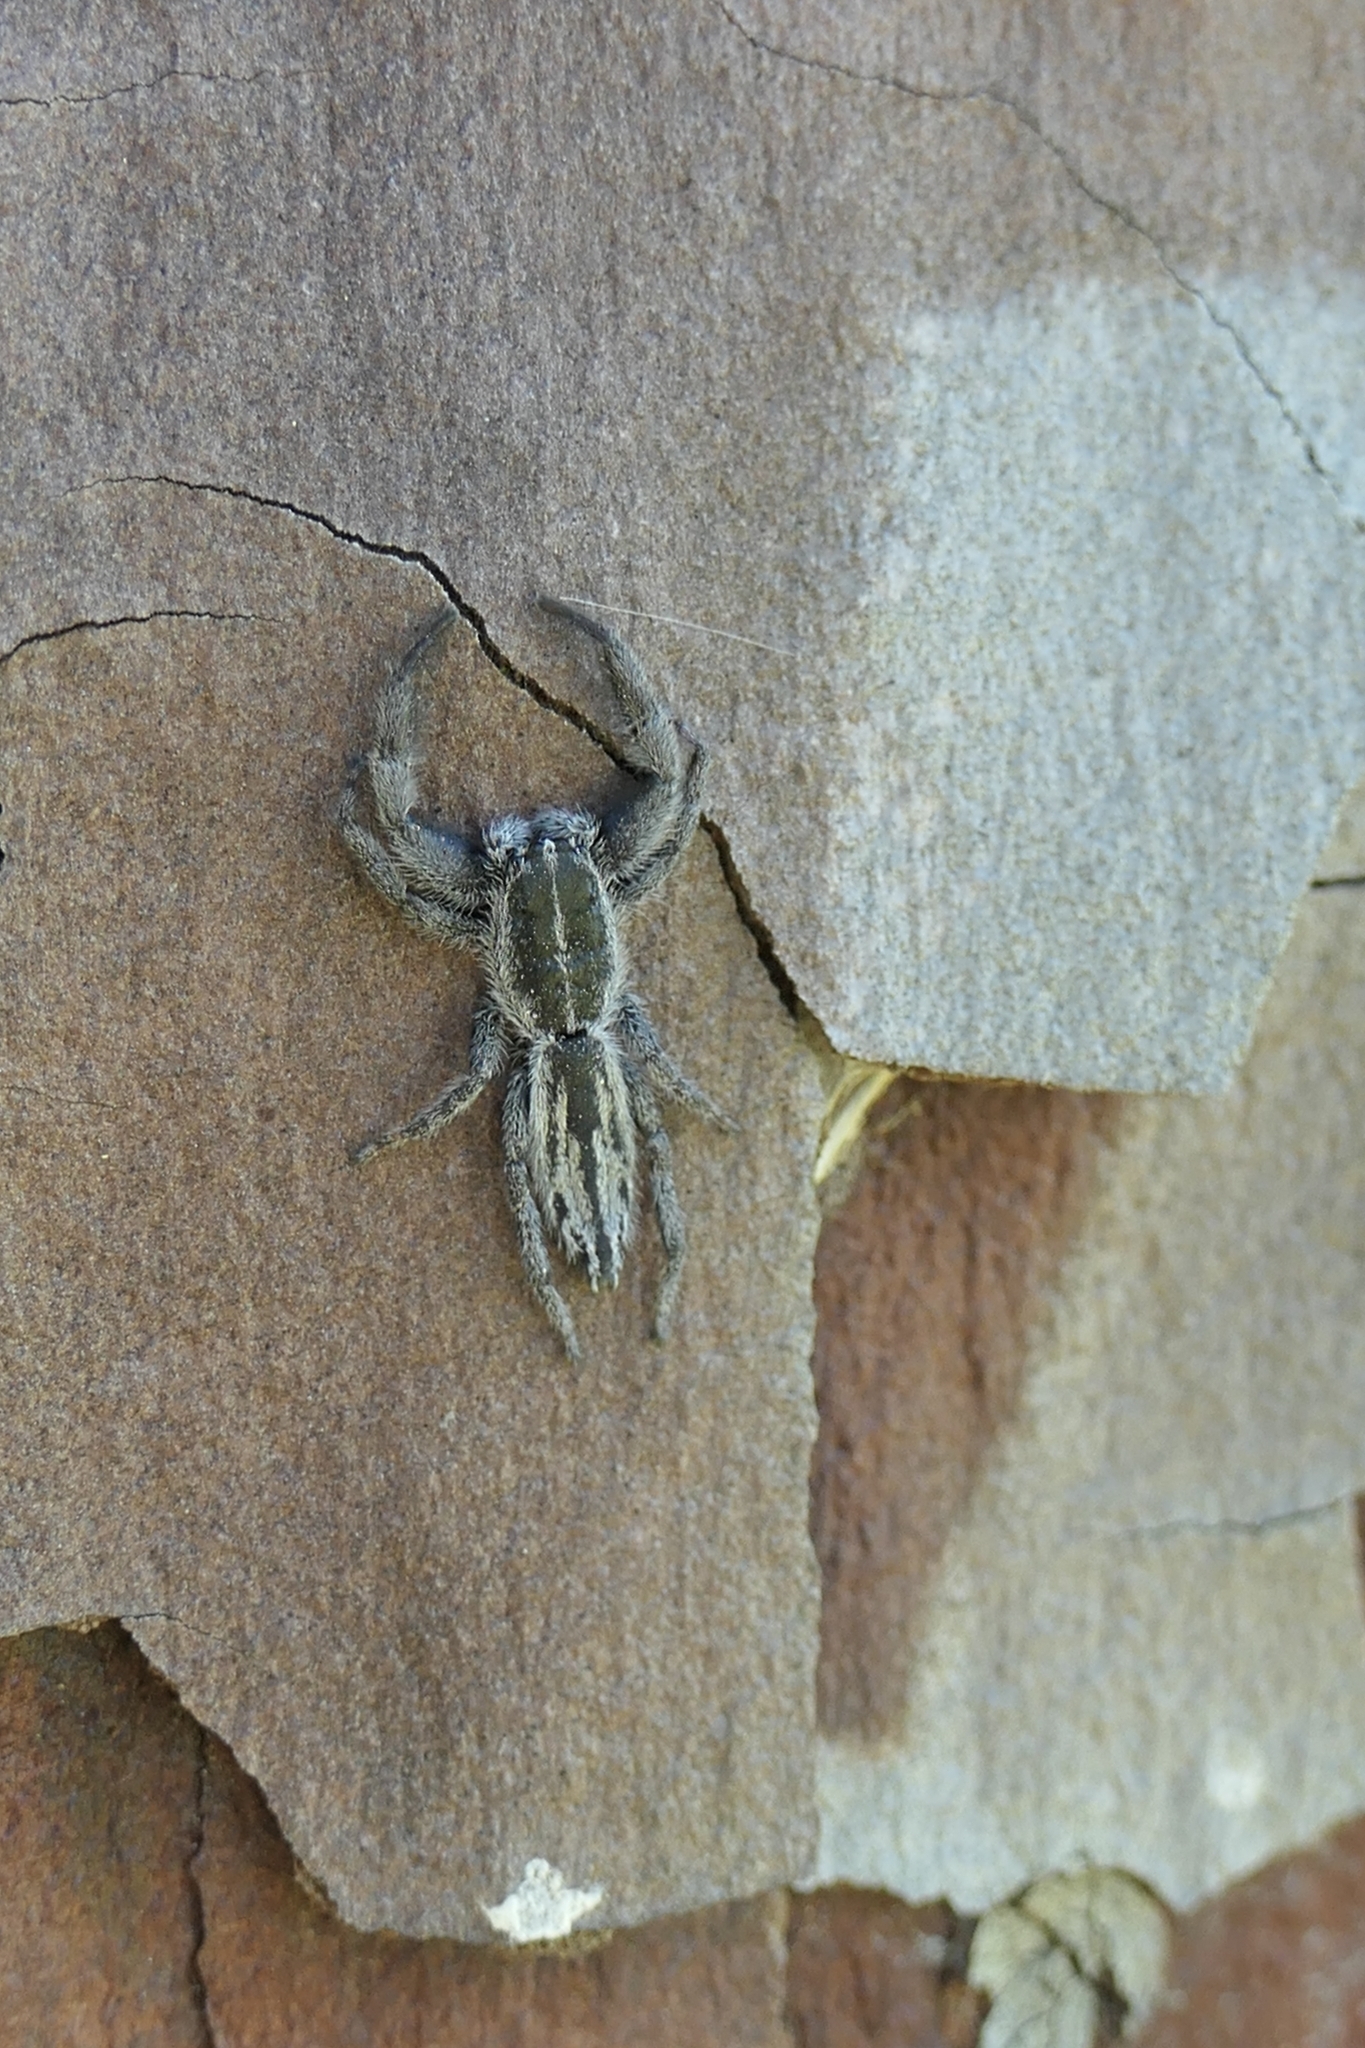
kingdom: Animalia
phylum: Arthropoda
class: Arachnida
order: Araneae
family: Salticidae
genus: Holoplatys
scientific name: Holoplatys apressus
